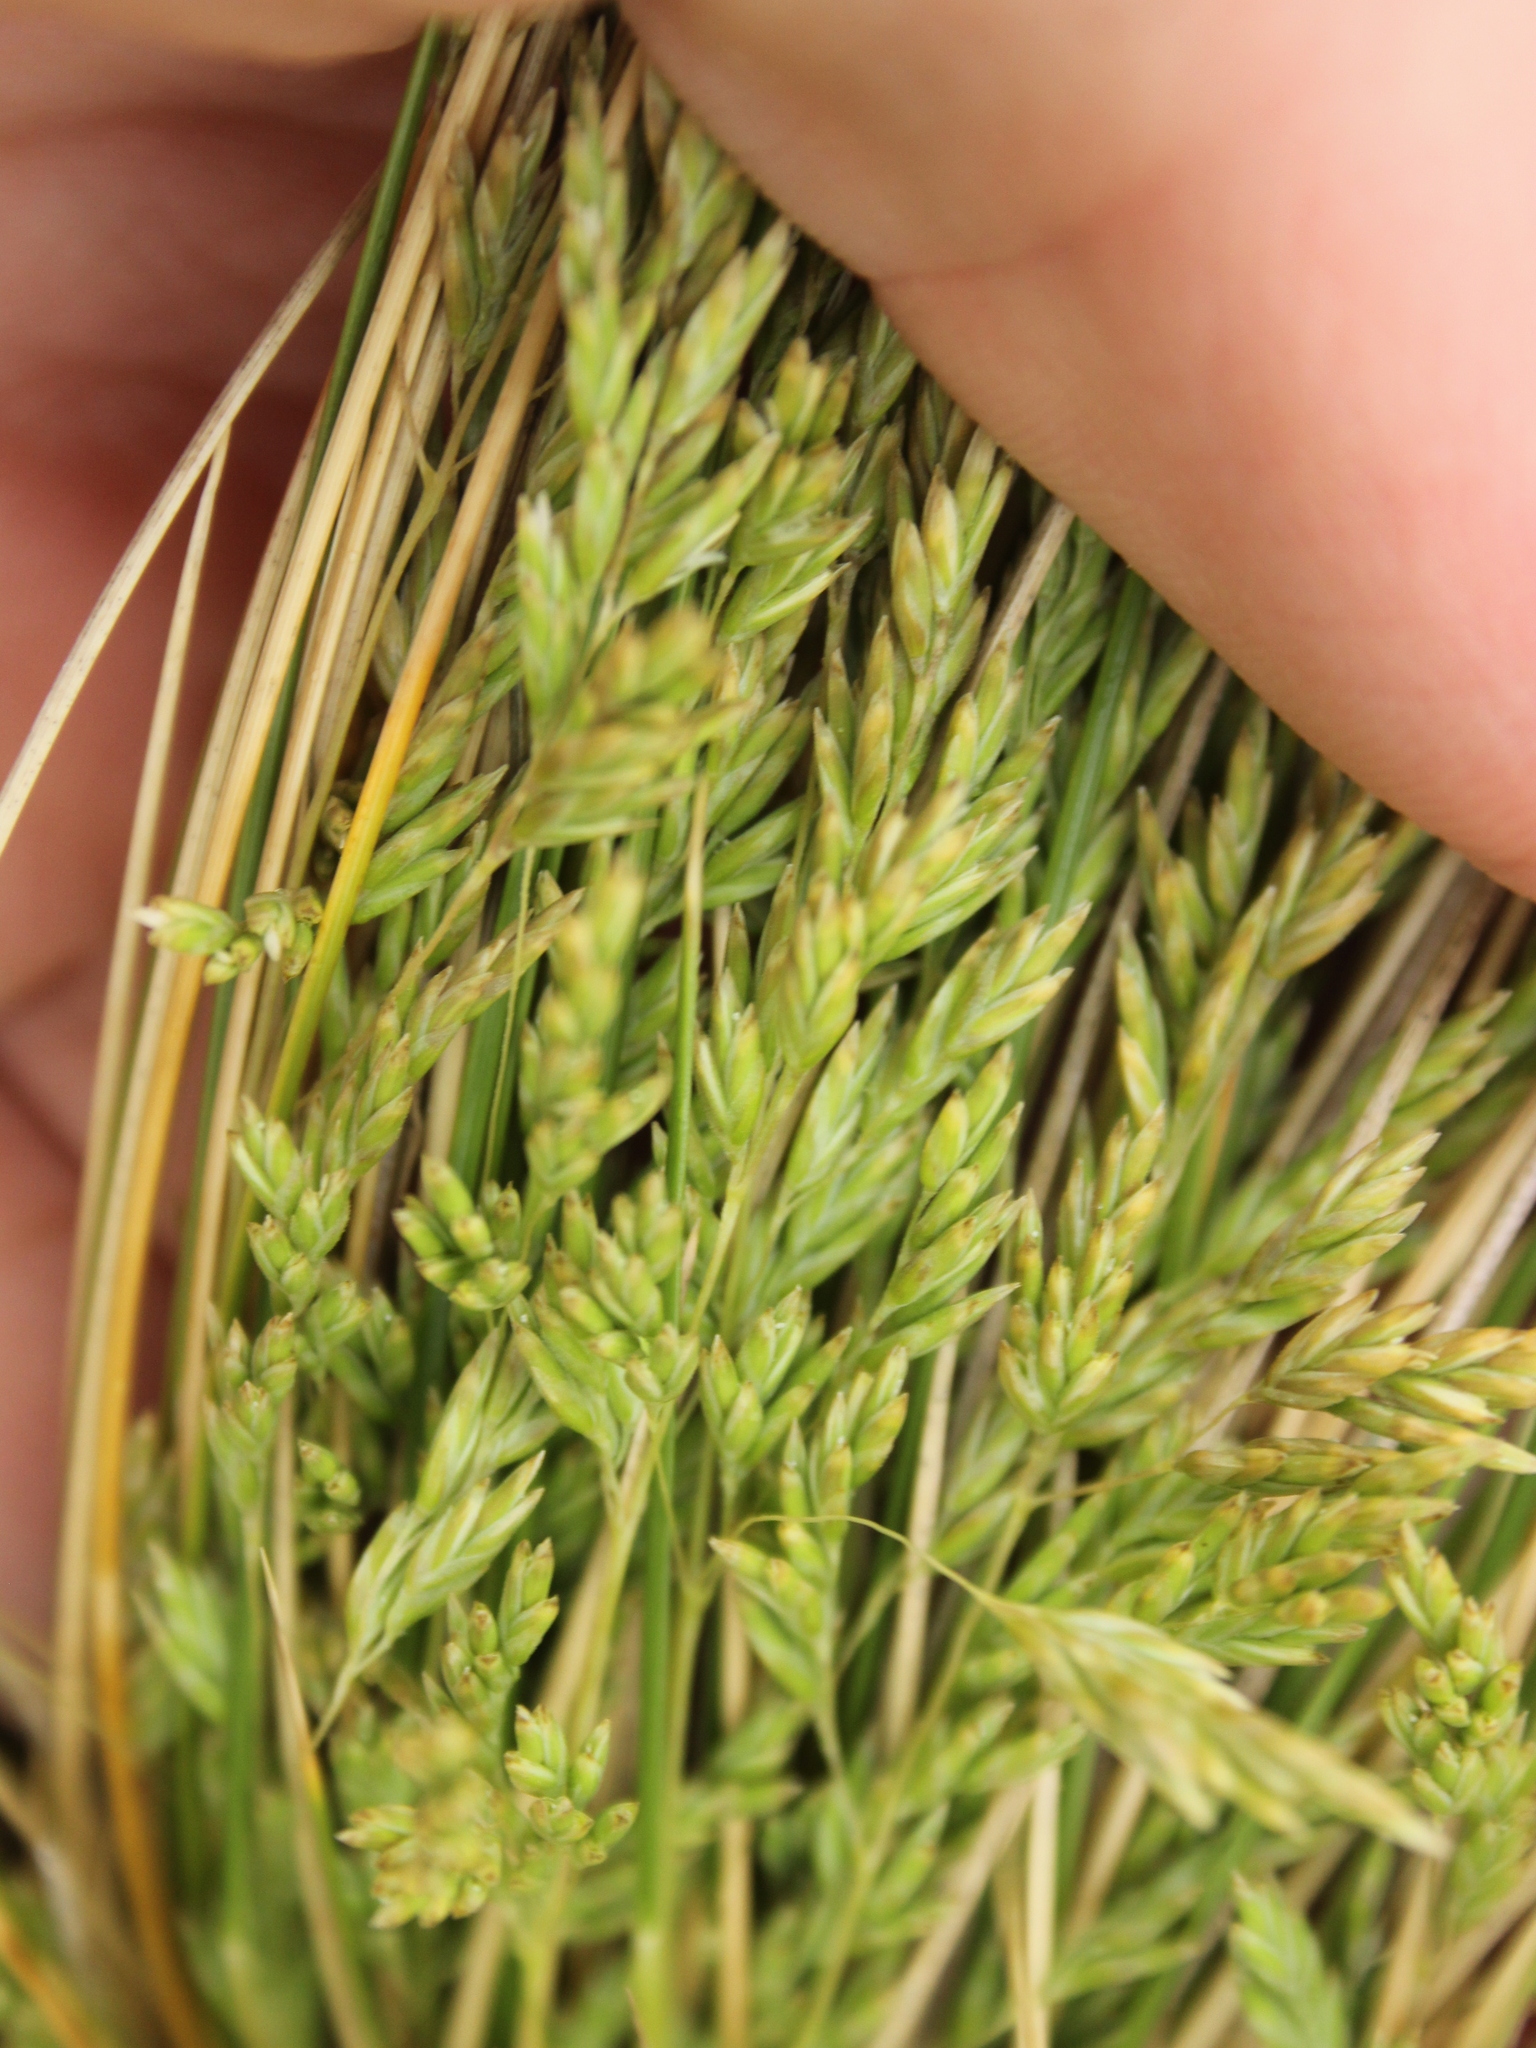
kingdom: Plantae
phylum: Tracheophyta
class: Liliopsida
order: Poales
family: Poaceae
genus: Poa
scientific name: Poa cita
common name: Silver tussock
